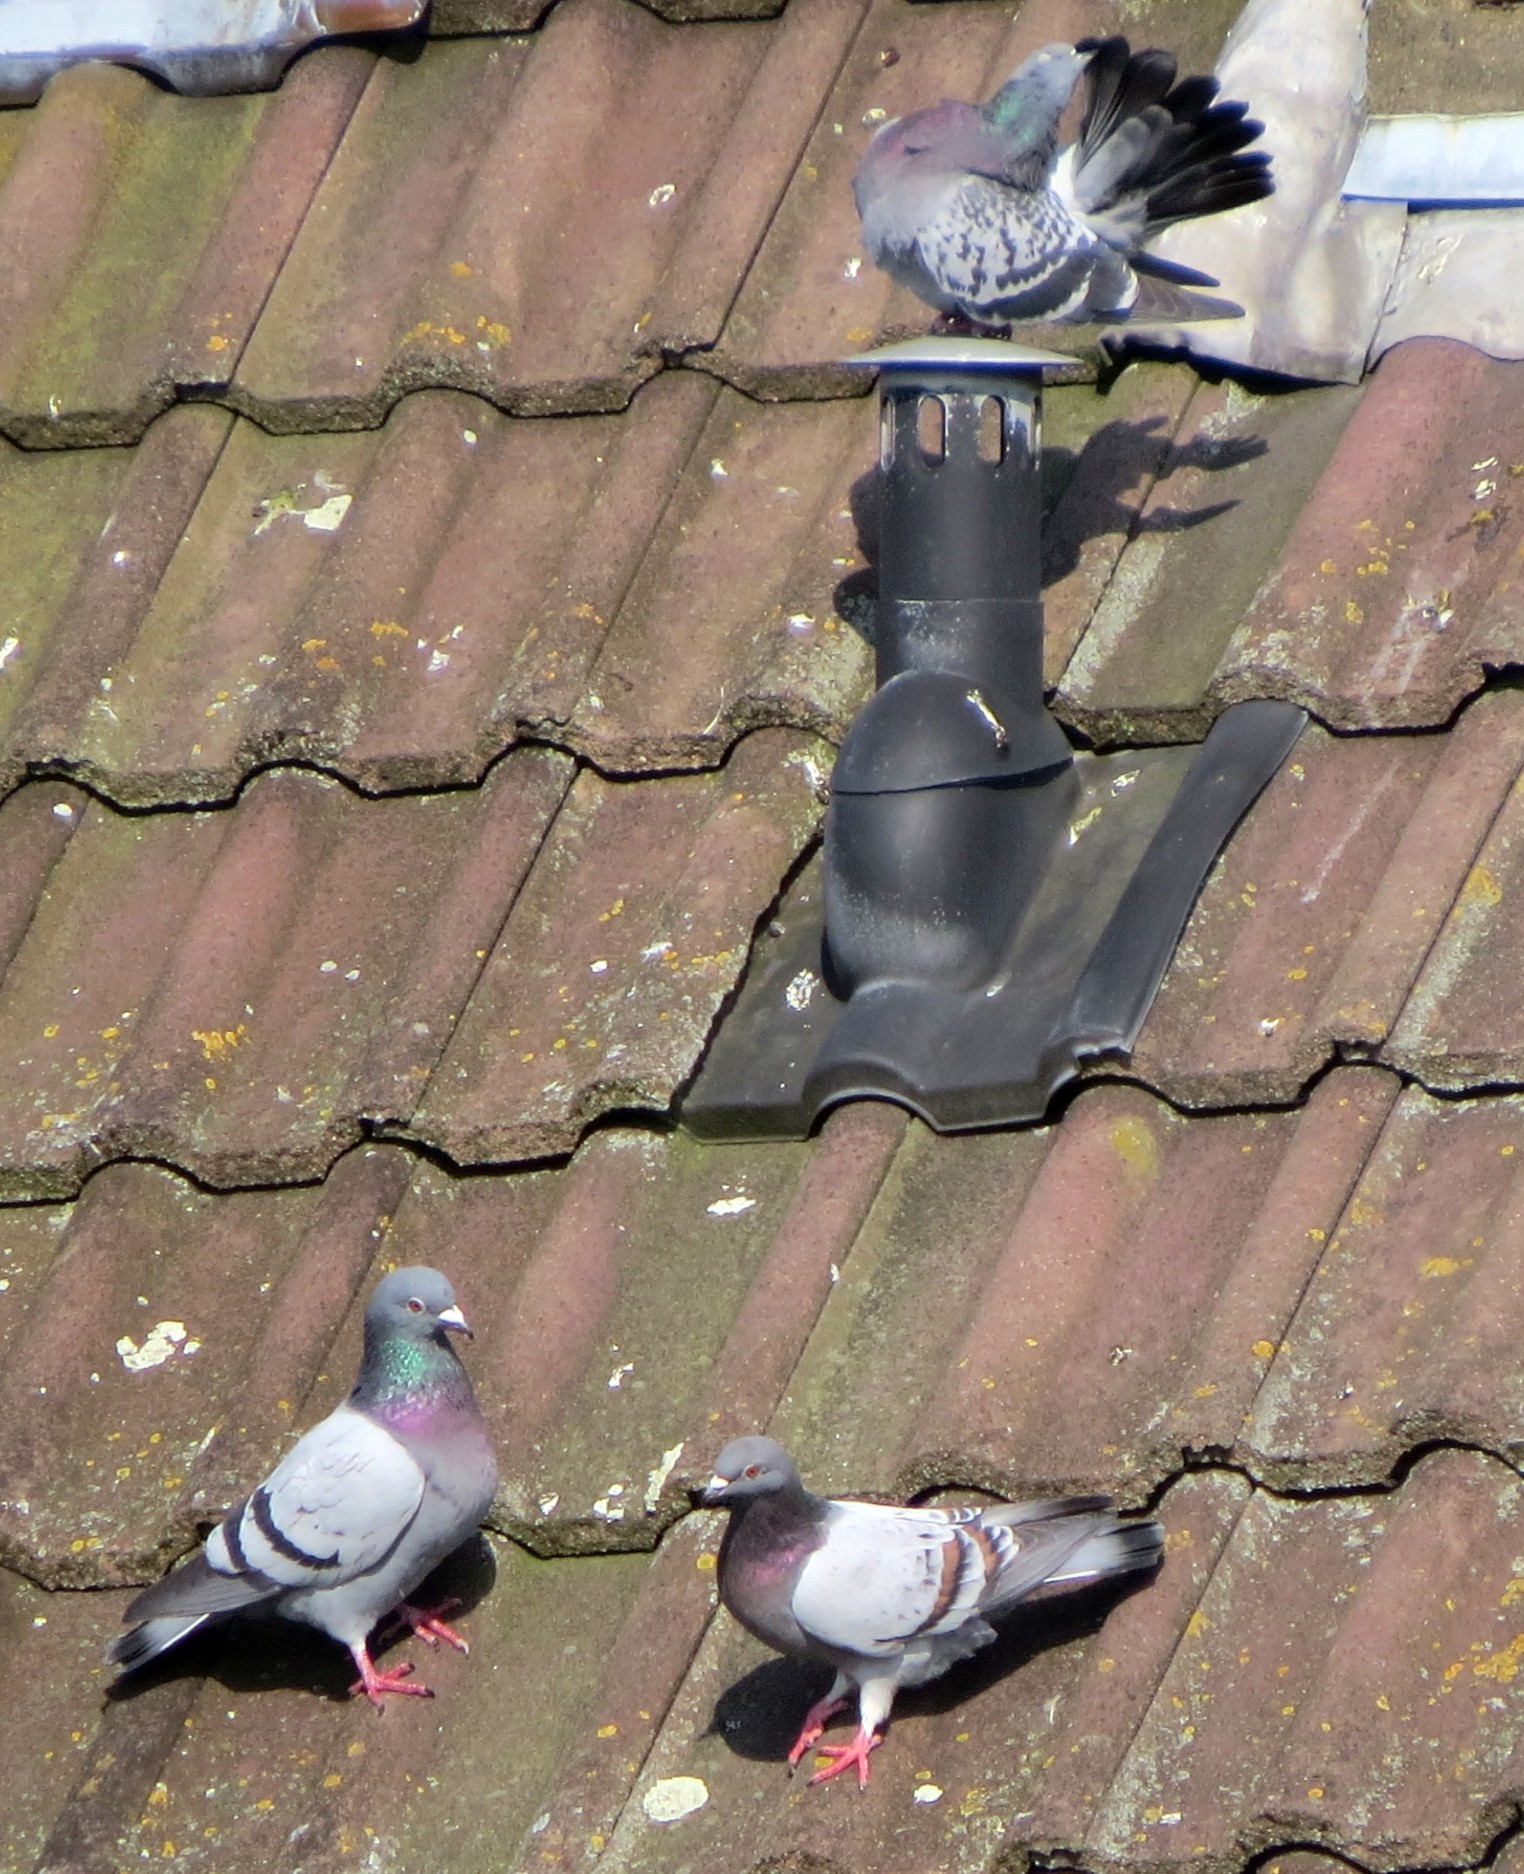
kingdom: Animalia
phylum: Chordata
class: Aves
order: Columbiformes
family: Columbidae
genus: Columba
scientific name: Columba livia
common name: Rock pigeon
